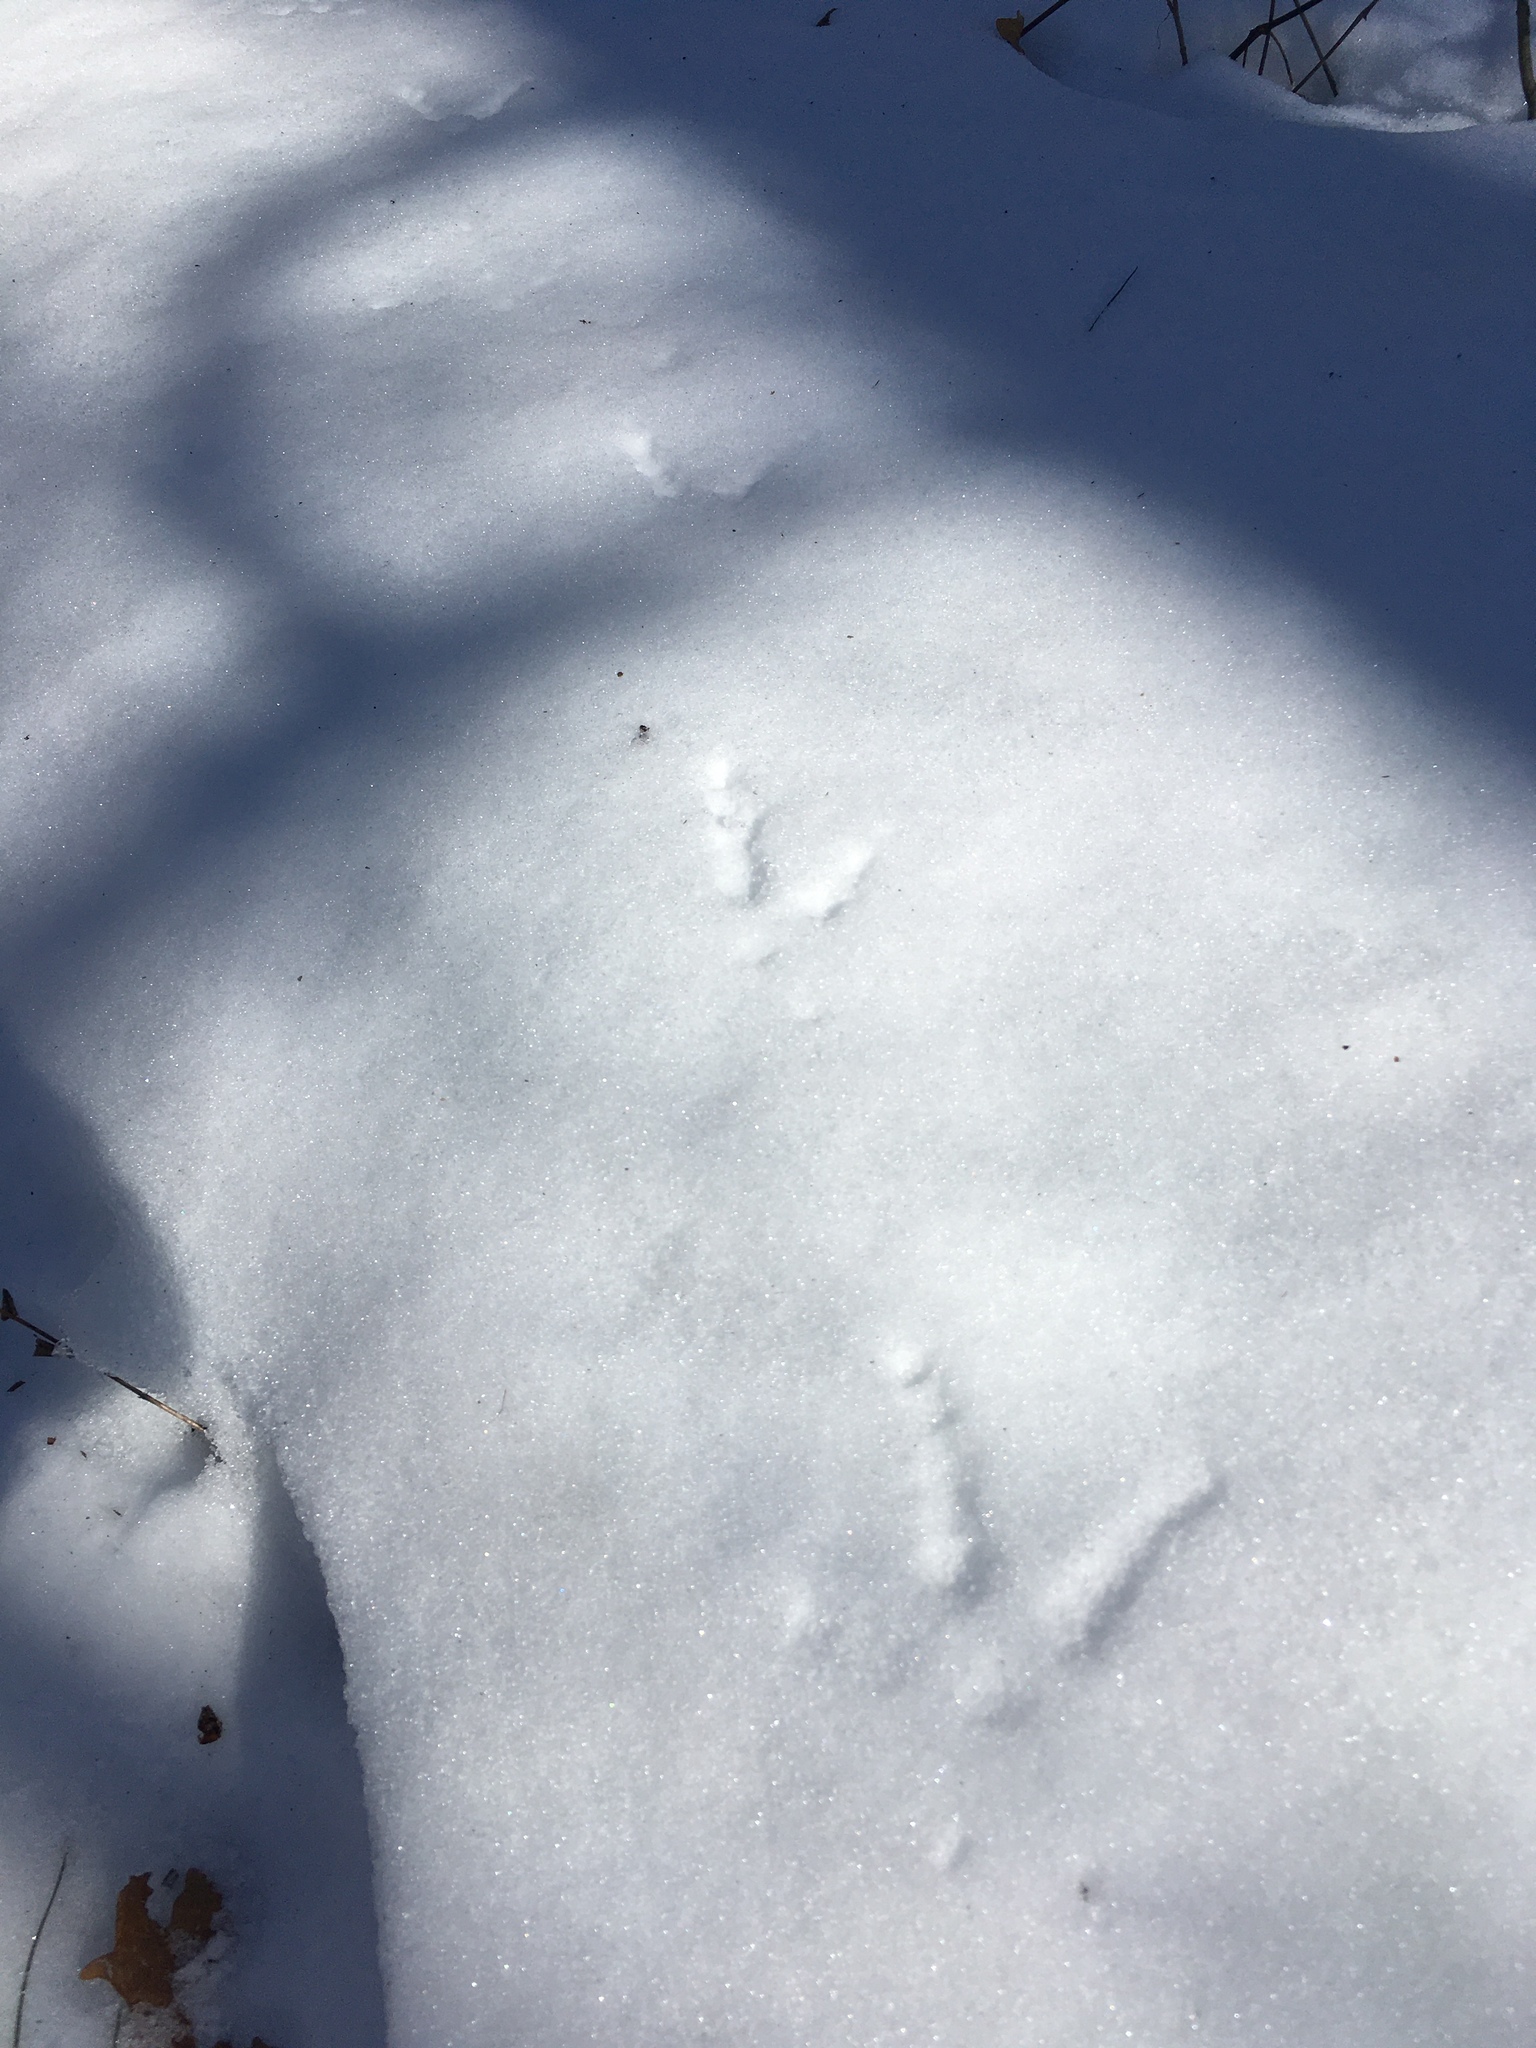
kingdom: Animalia
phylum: Chordata
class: Aves
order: Galliformes
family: Phasianidae
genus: Meleagris
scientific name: Meleagris gallopavo
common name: Wild turkey
